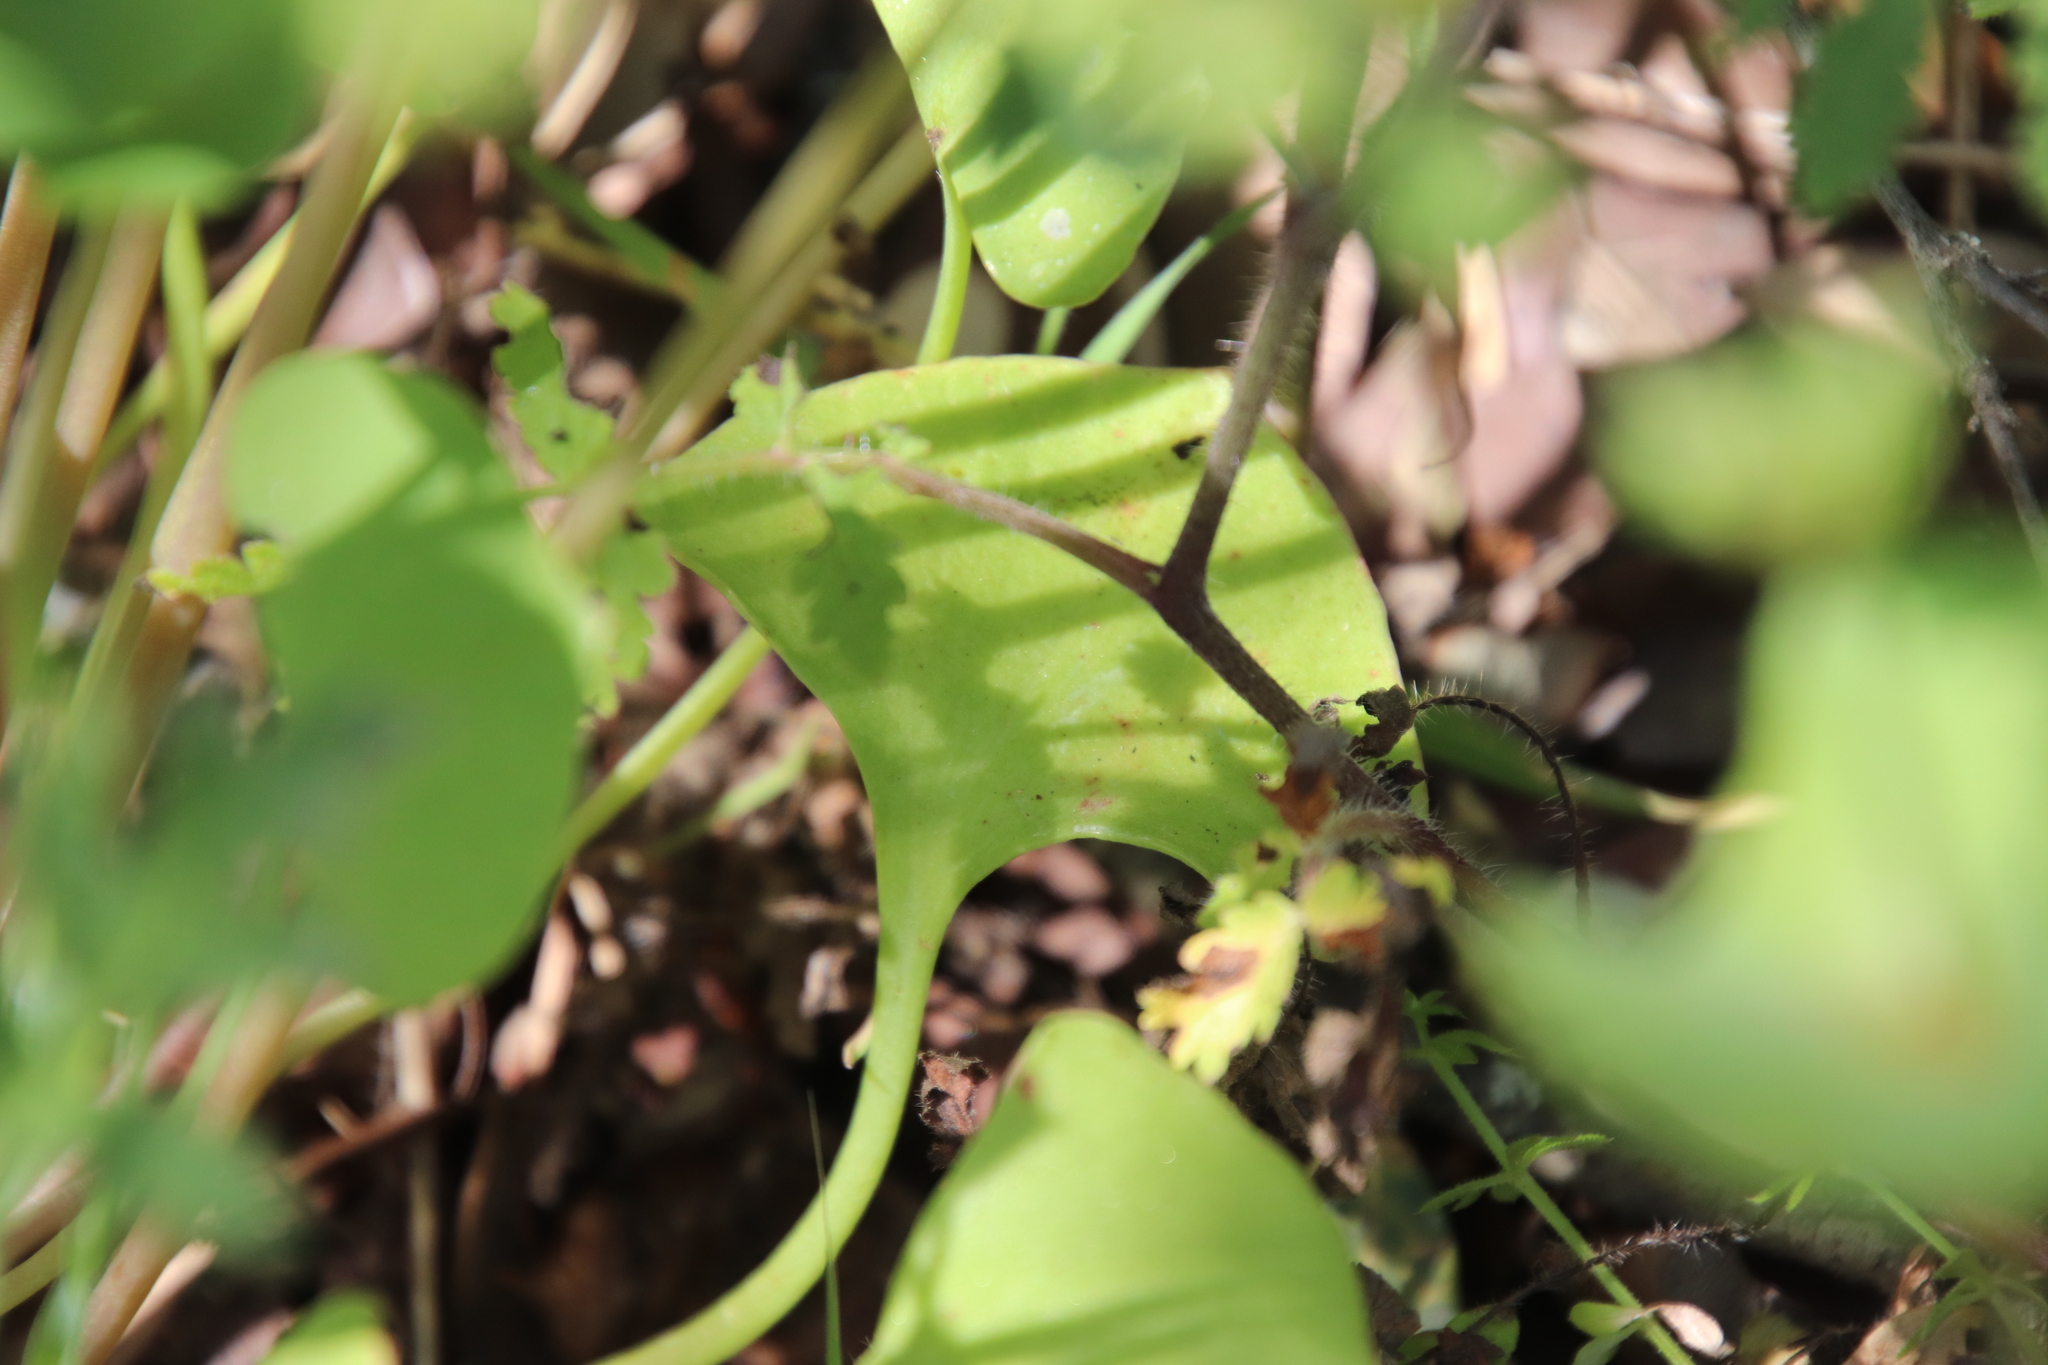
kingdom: Plantae
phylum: Tracheophyta
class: Magnoliopsida
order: Caryophyllales
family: Montiaceae
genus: Claytonia
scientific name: Claytonia perfoliata
